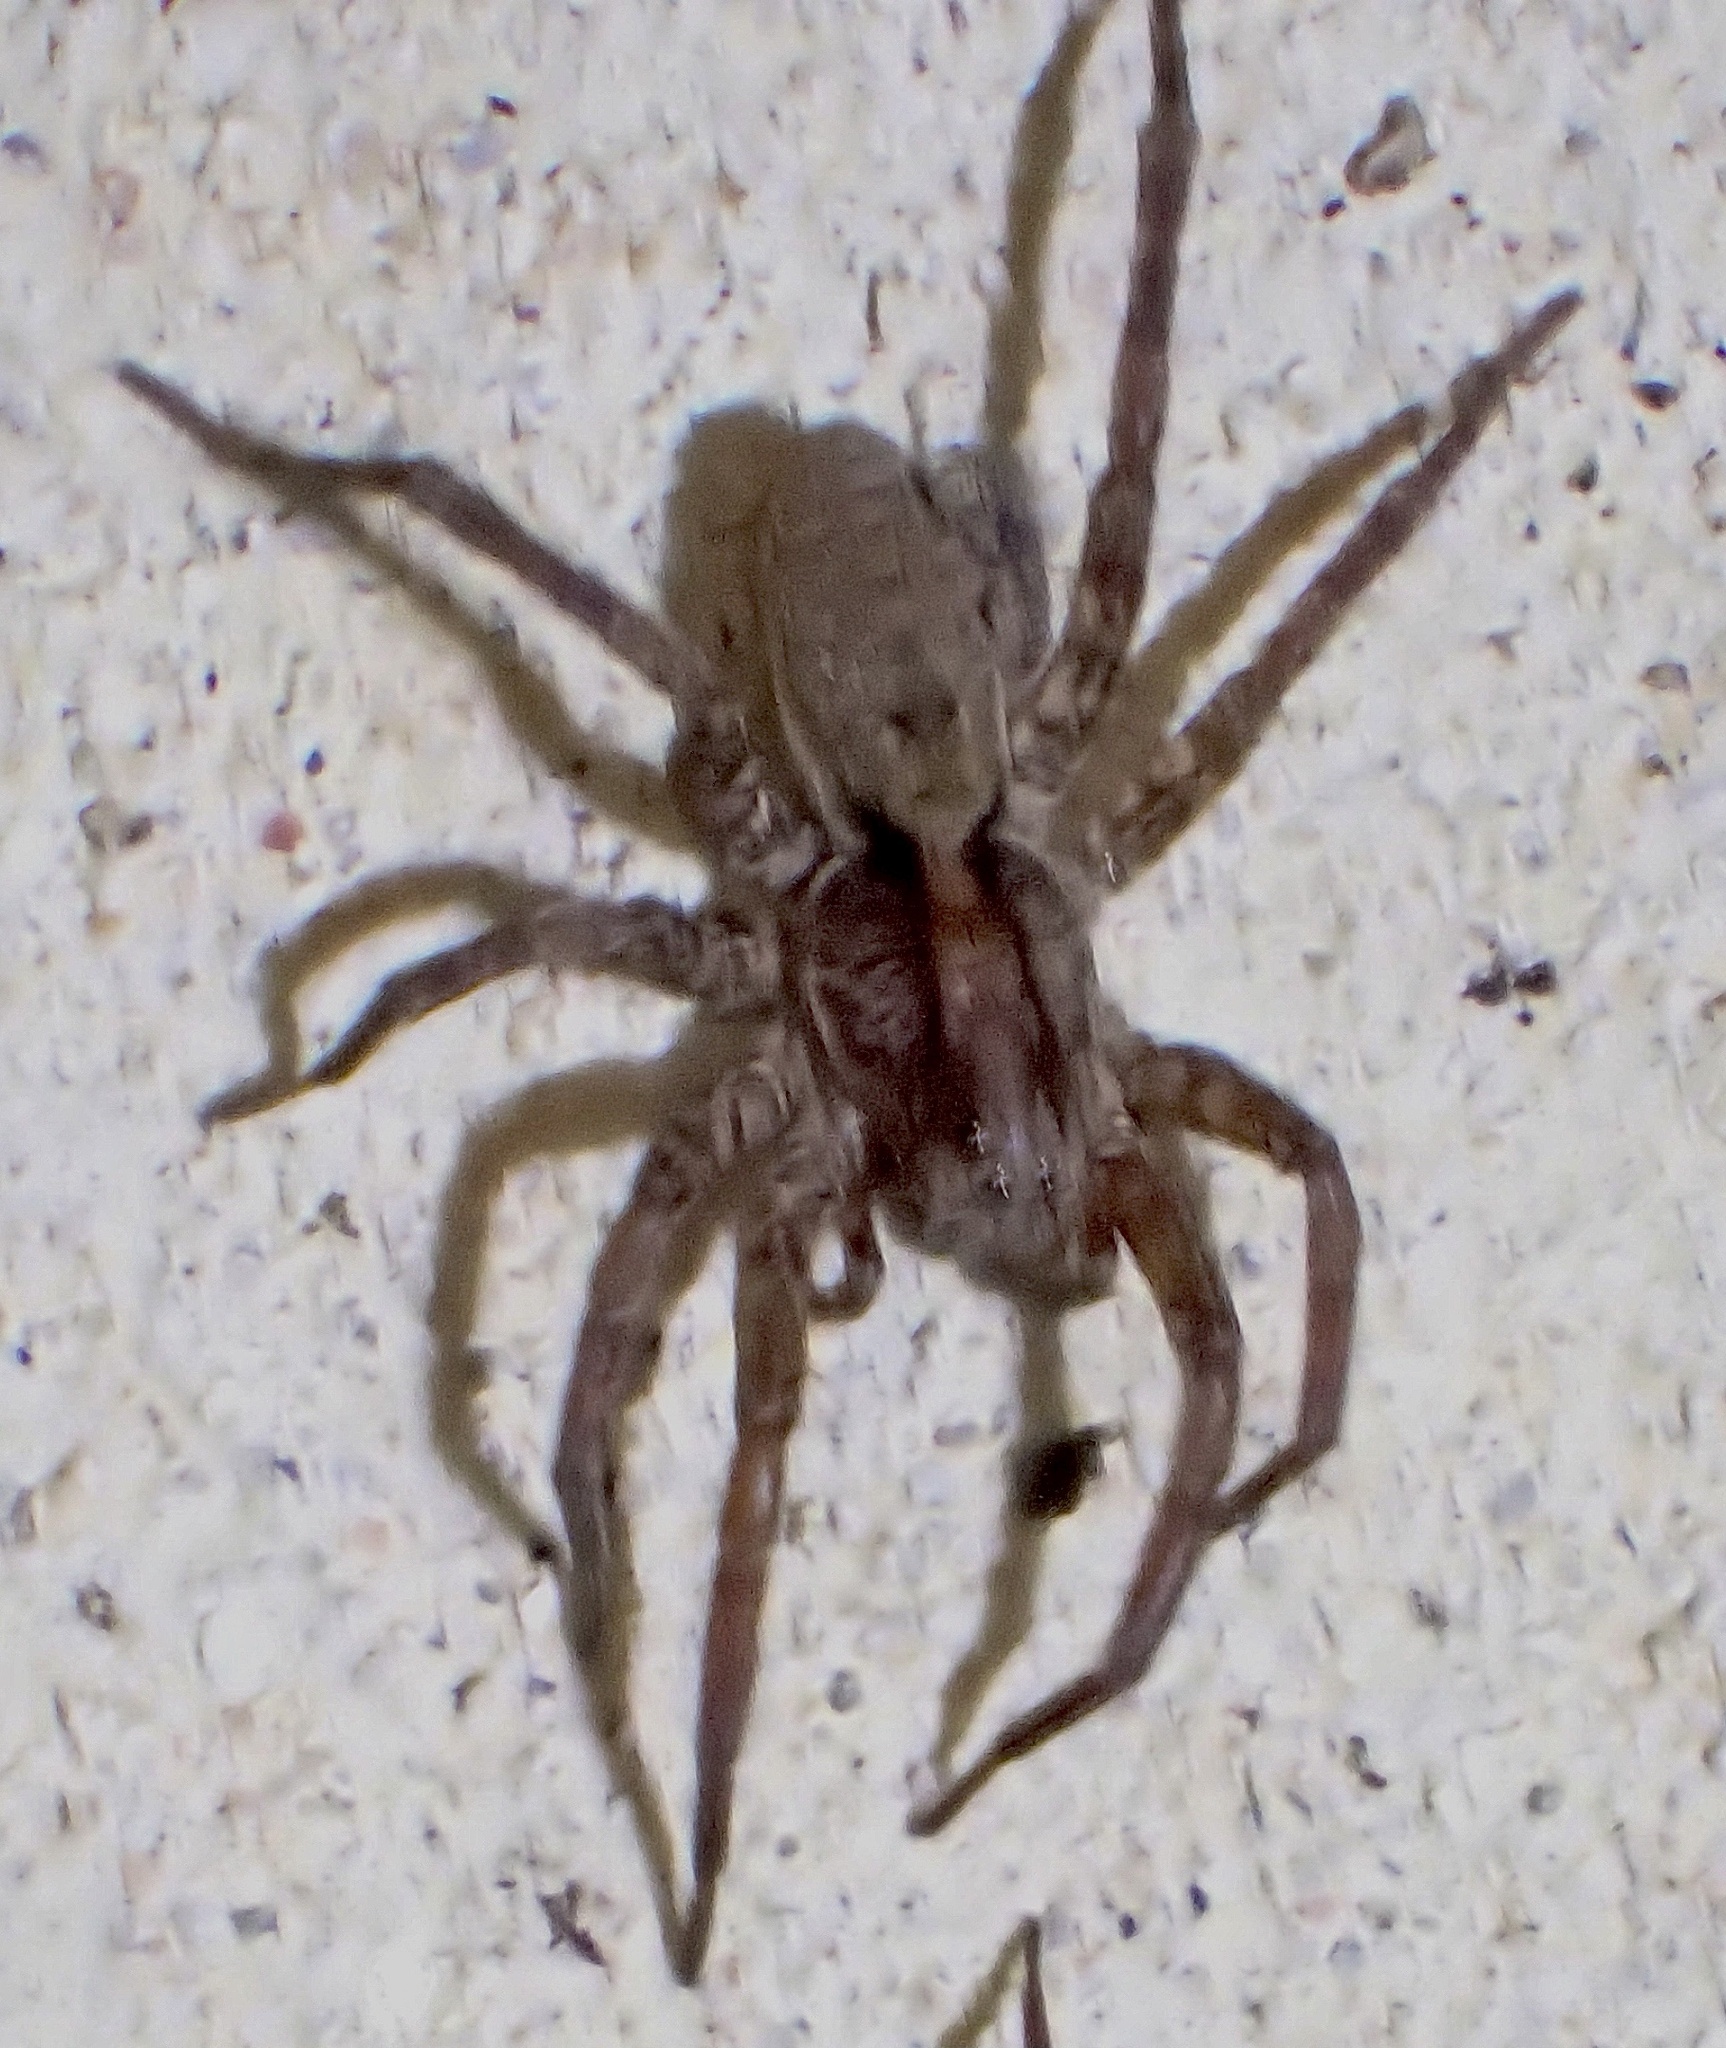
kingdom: Animalia
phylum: Arthropoda
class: Arachnida
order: Araneae
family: Lycosidae
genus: Gladicosa
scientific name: Gladicosa gulosa
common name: Drumming sword wolf spider
